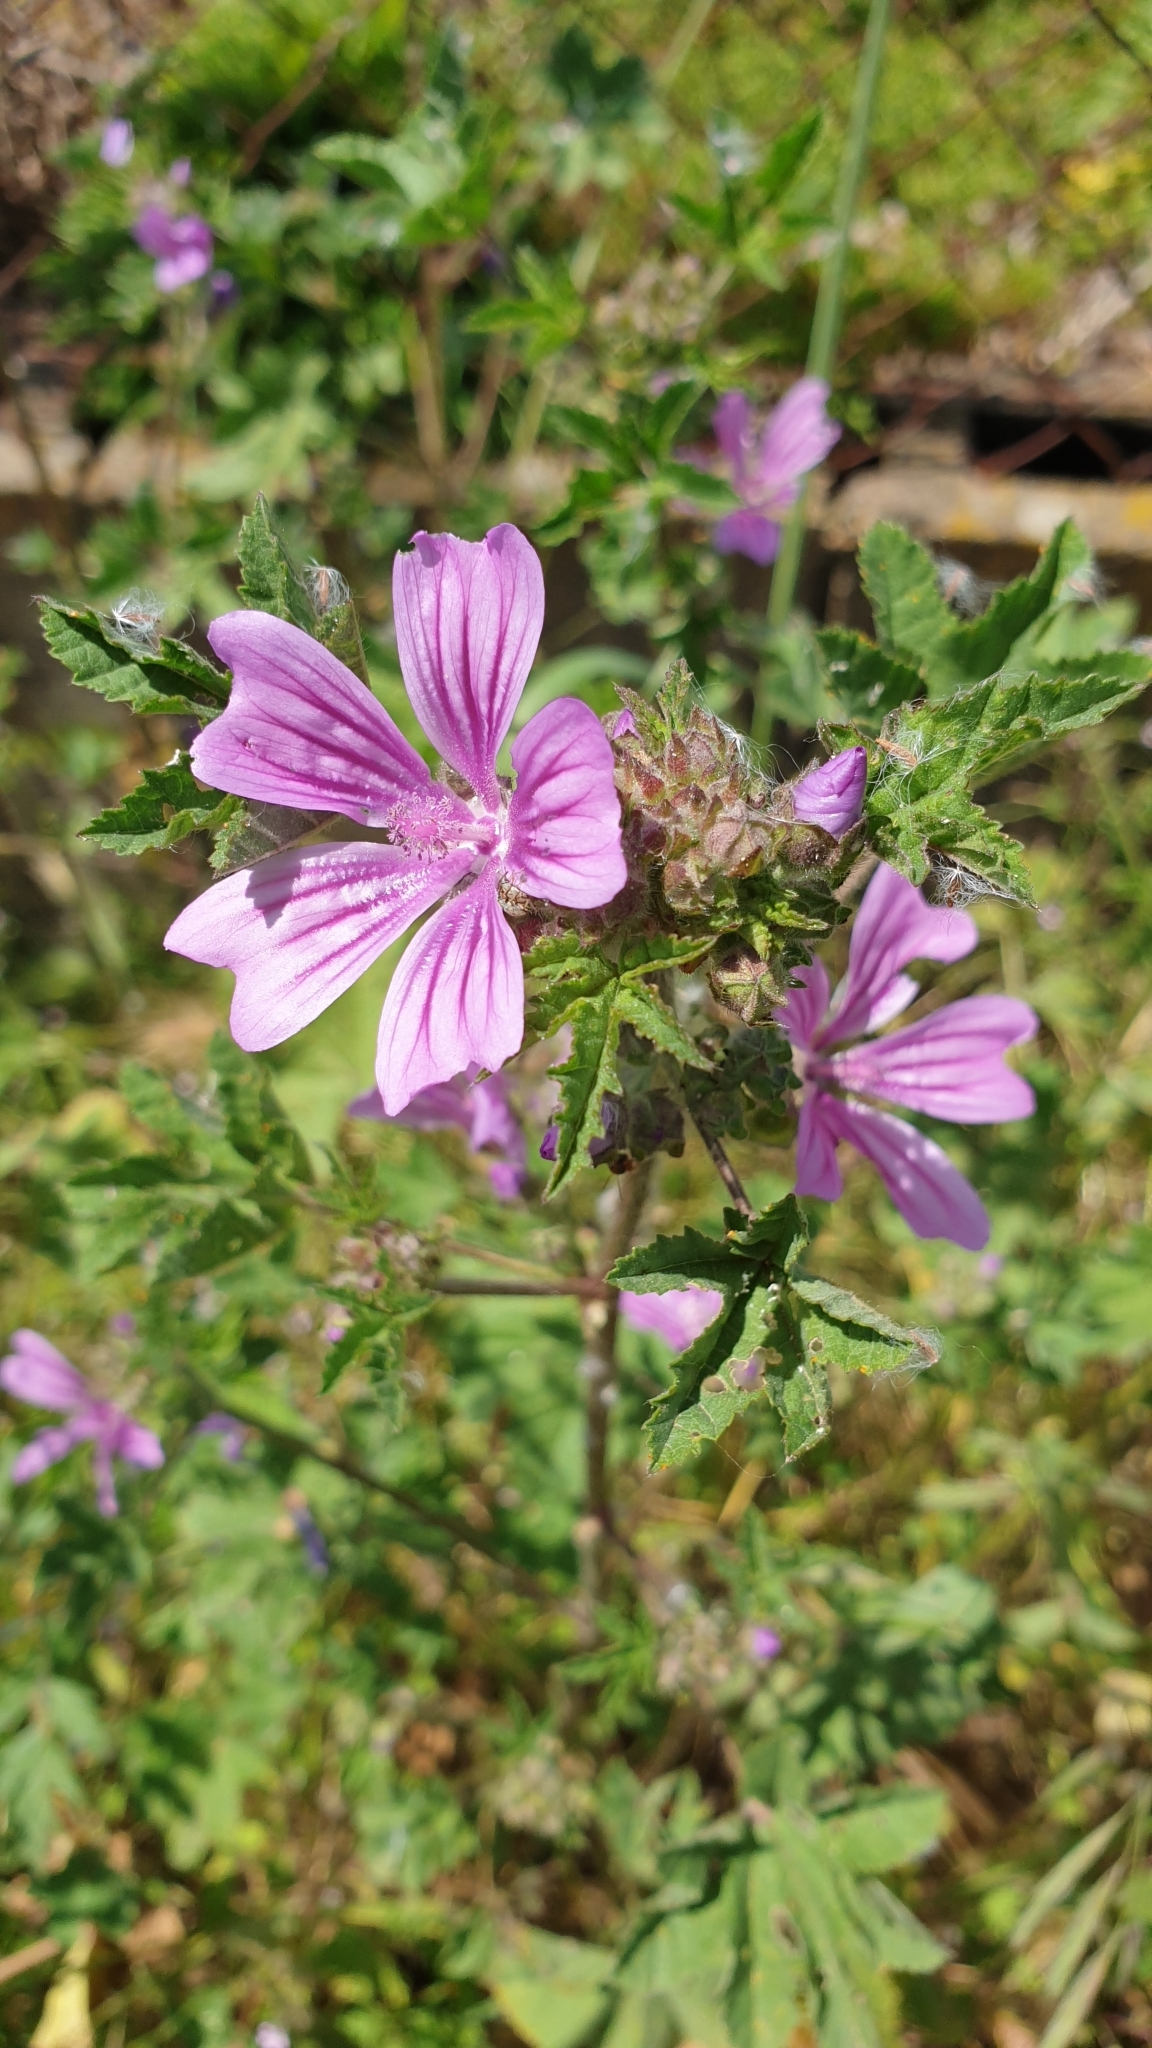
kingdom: Plantae
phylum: Tracheophyta
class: Magnoliopsida
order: Malvales
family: Malvaceae
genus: Malva
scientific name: Malva sylvestris
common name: Common mallow
